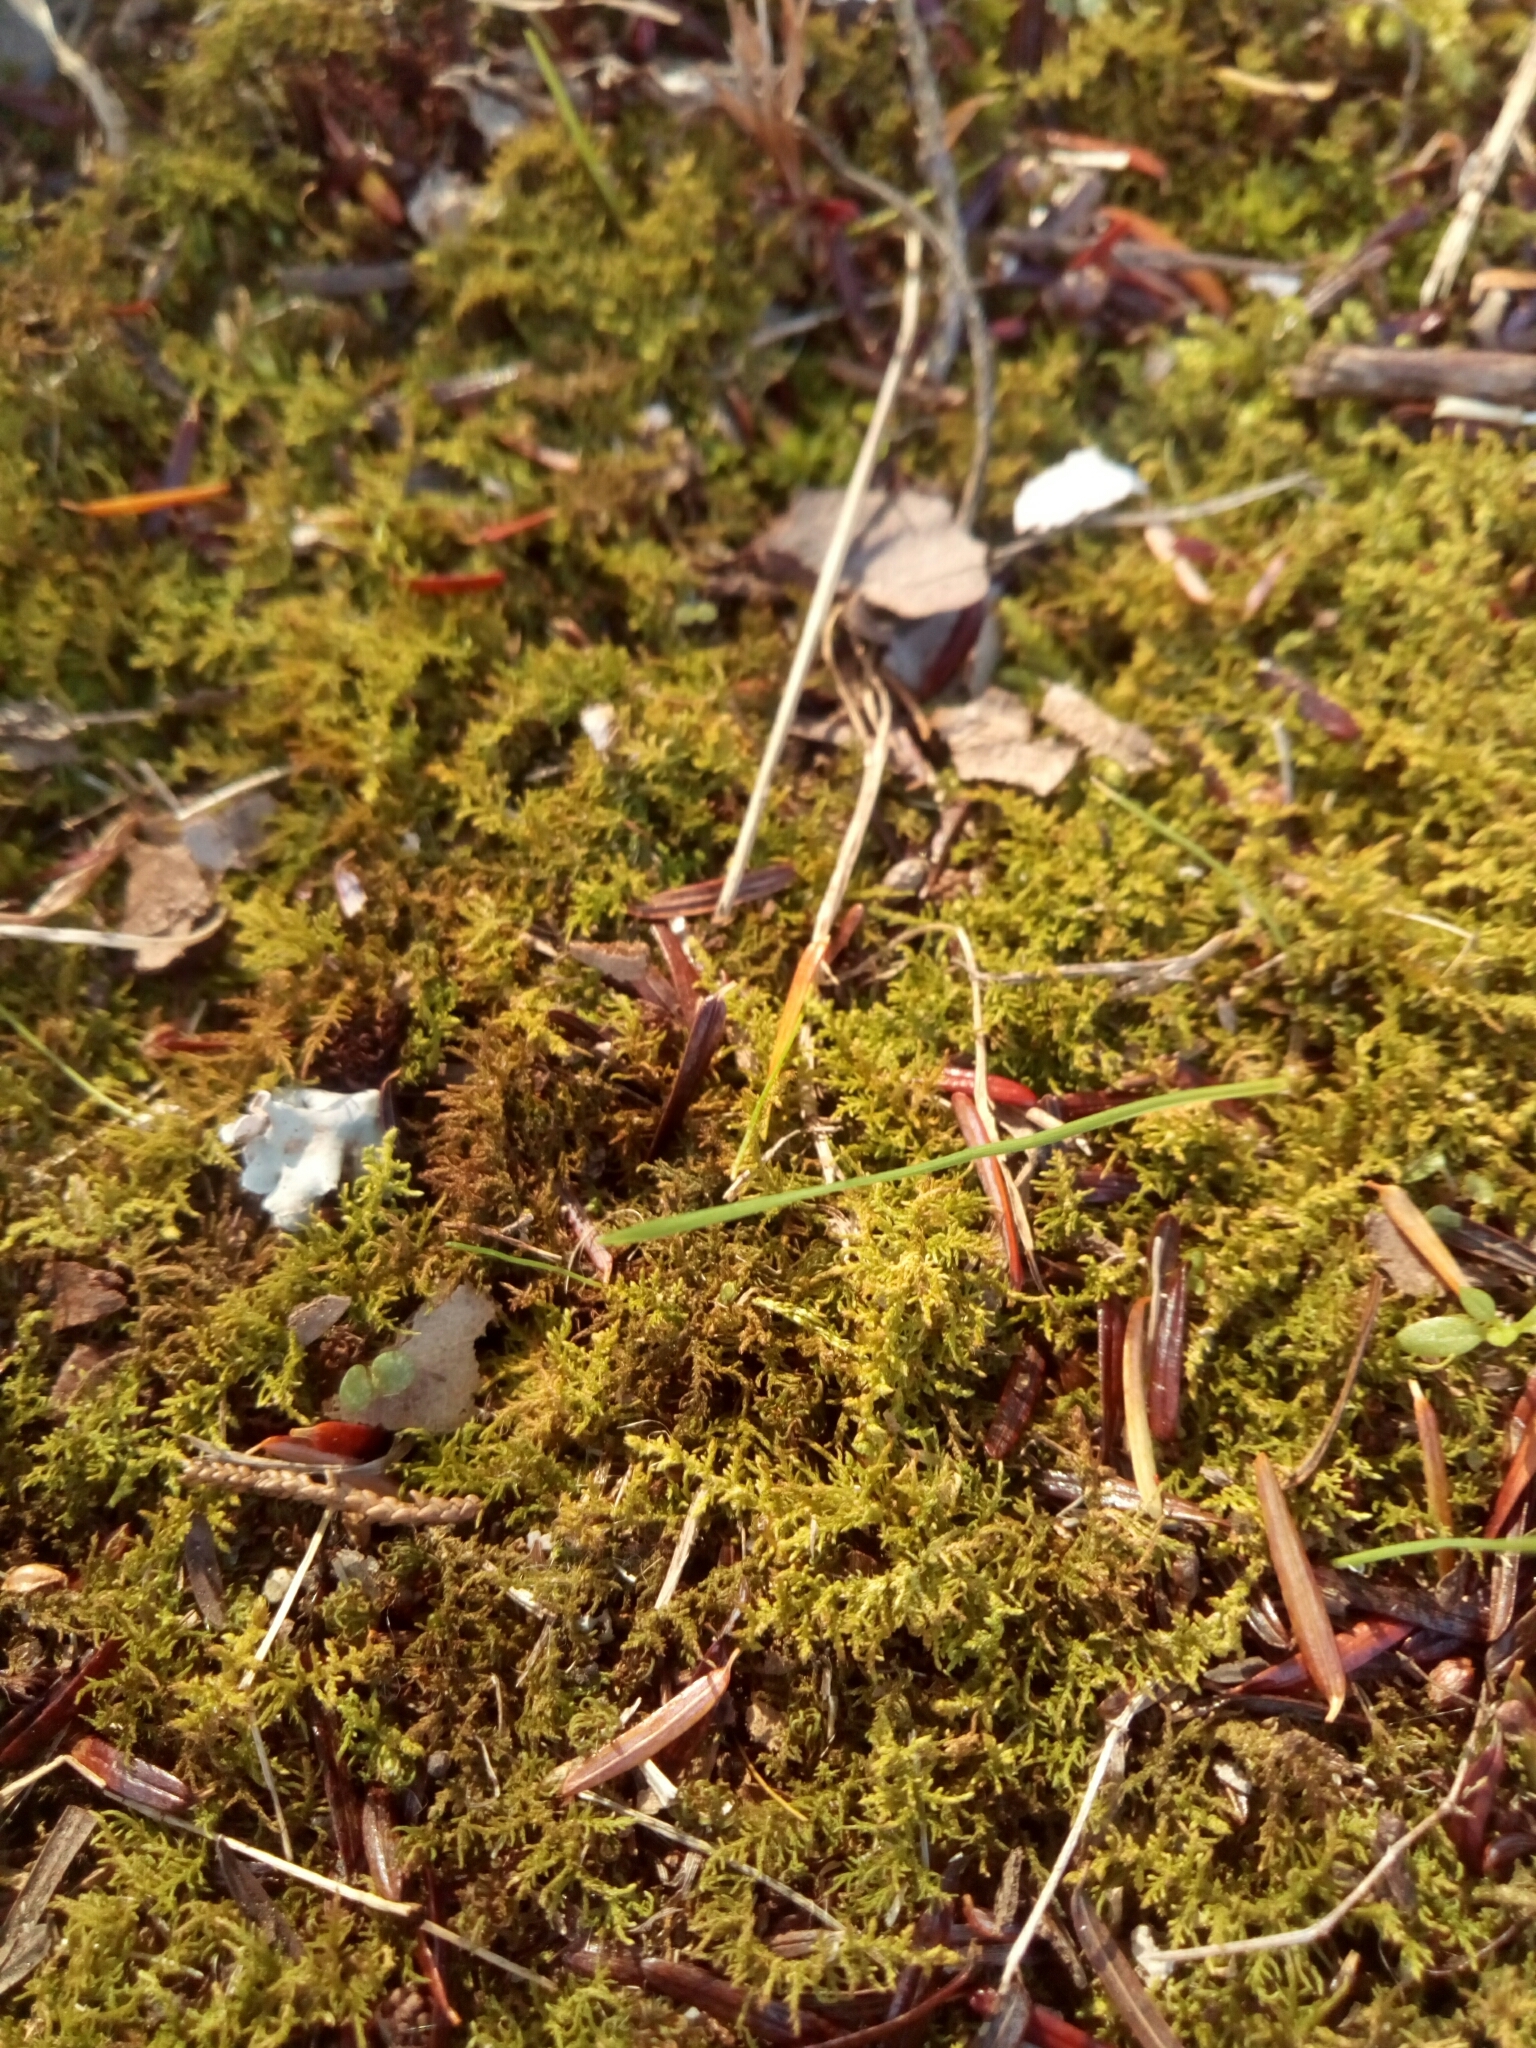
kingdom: Plantae
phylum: Bryophyta
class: Bryopsida
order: Hypnales
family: Thuidiaceae
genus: Thuidium
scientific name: Thuidium delicatulum
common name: Delicate fern moss
